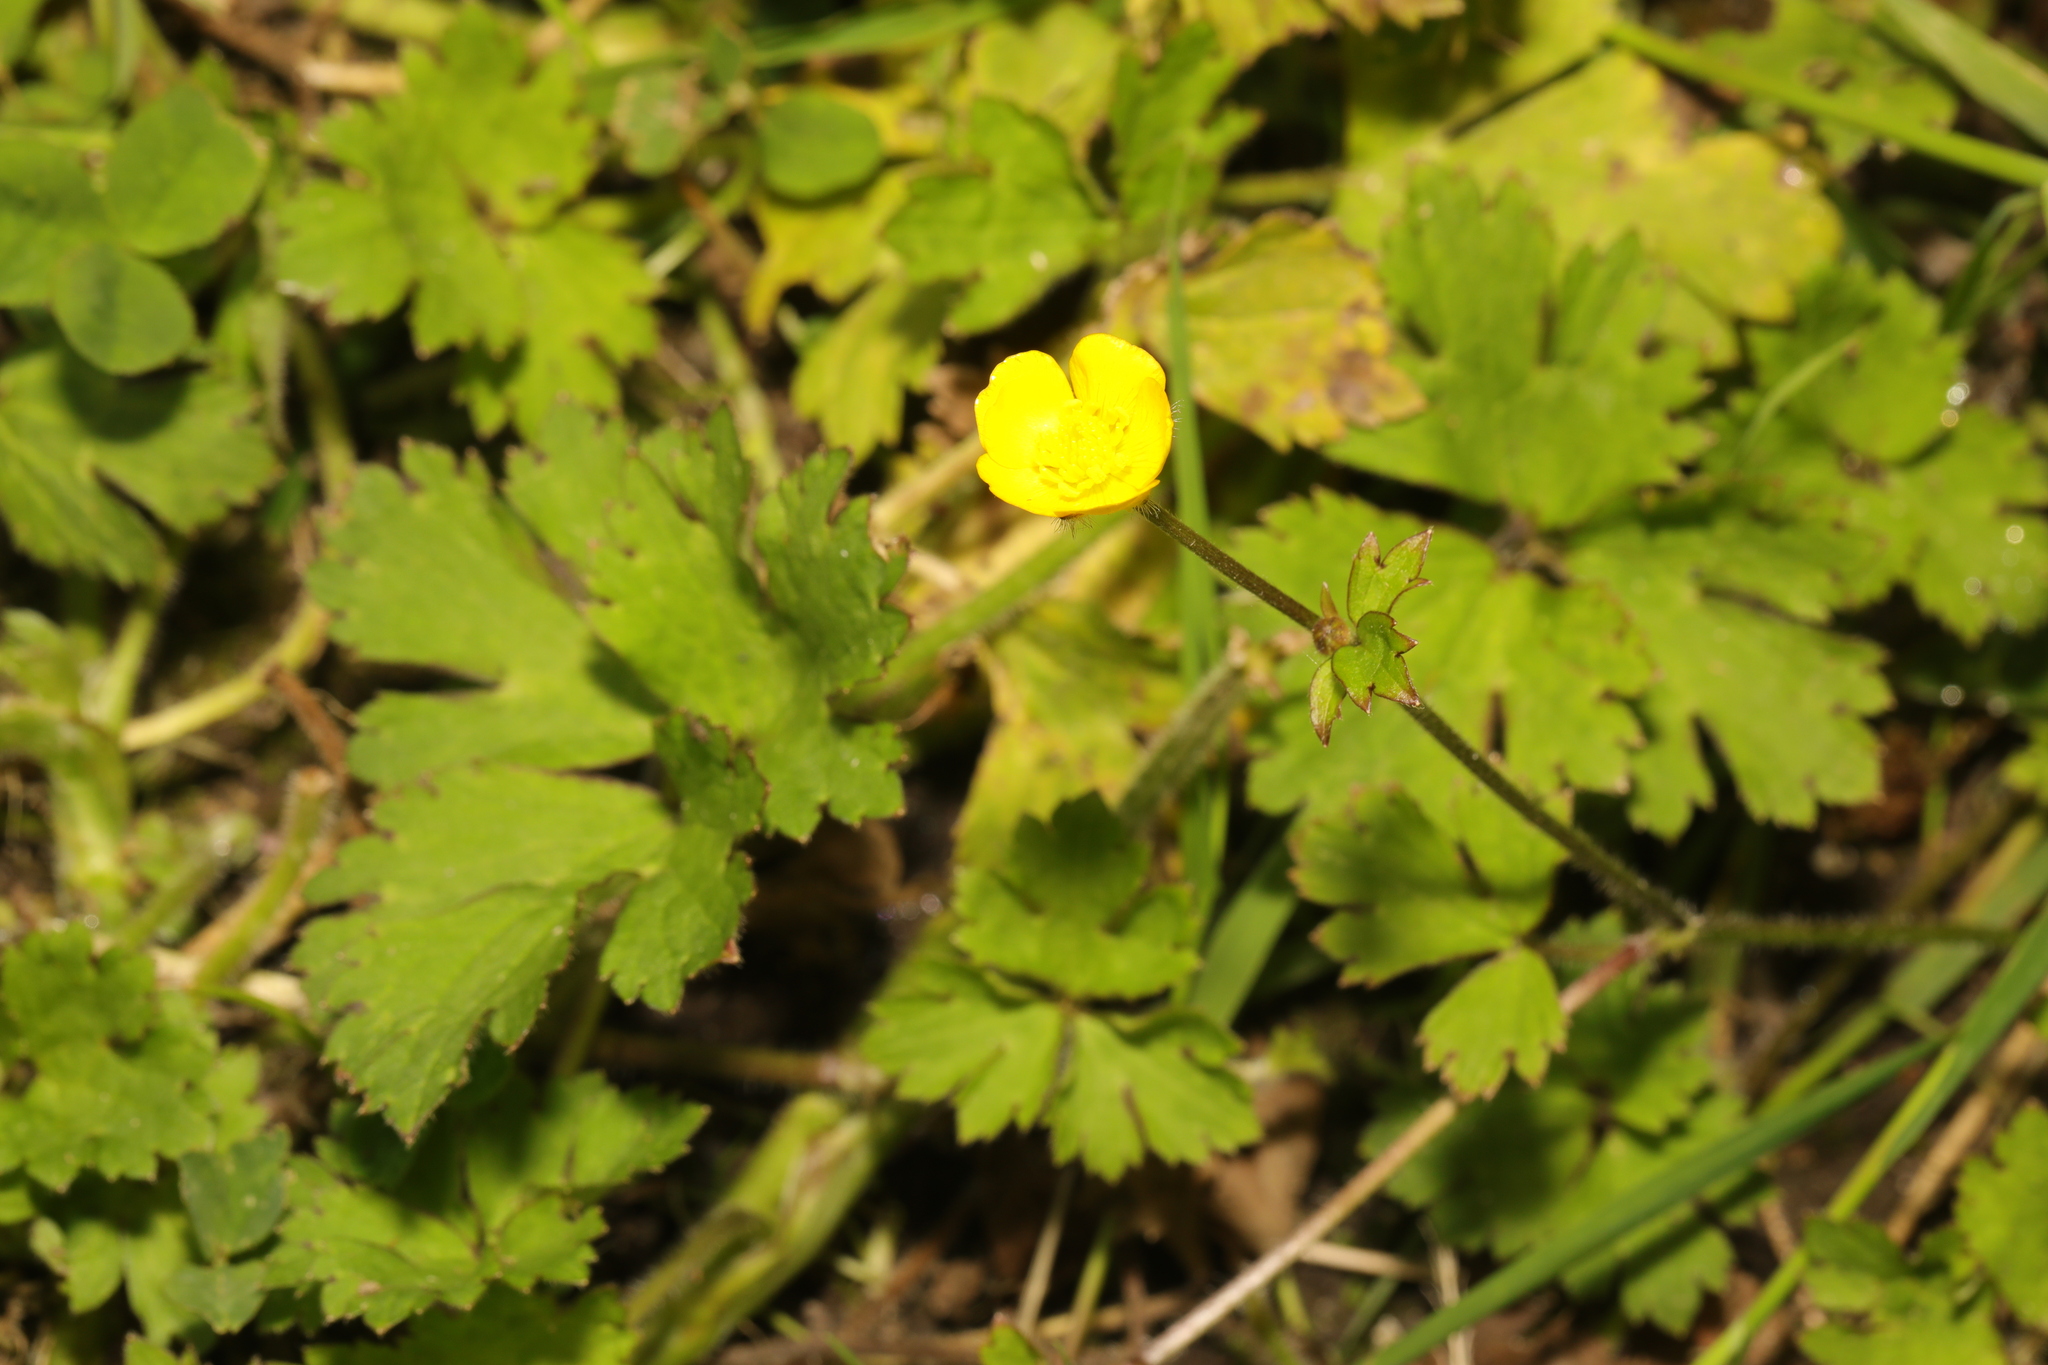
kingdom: Plantae
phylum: Tracheophyta
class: Magnoliopsida
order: Ranunculales
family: Ranunculaceae
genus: Ranunculus
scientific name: Ranunculus repens
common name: Creeping buttercup
